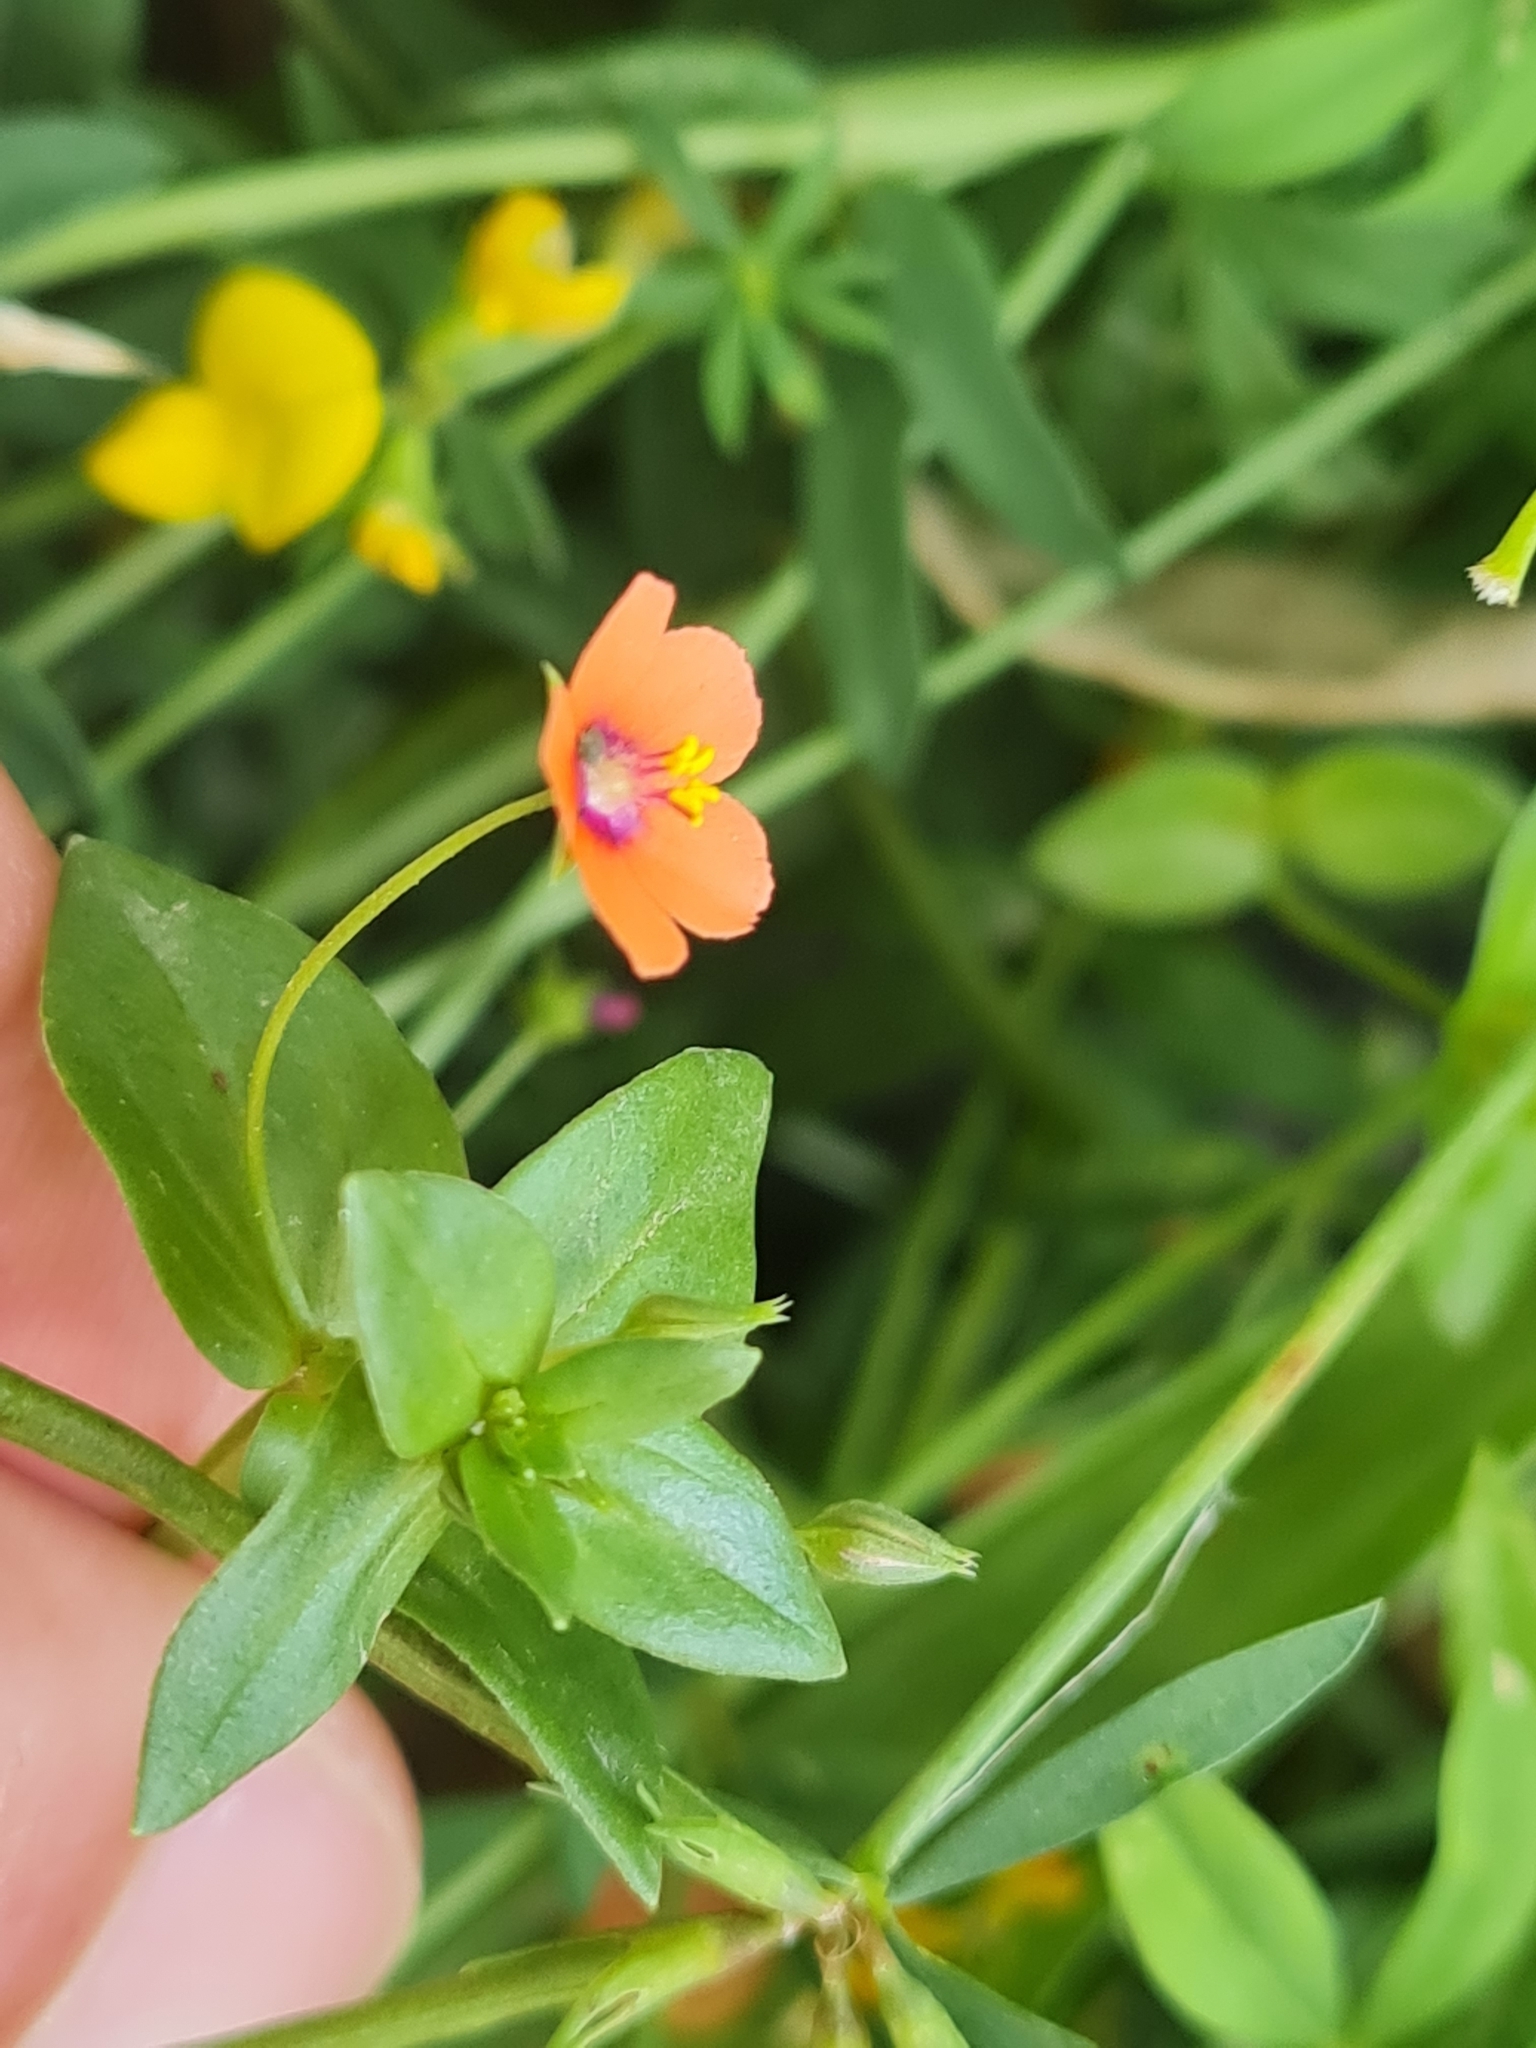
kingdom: Plantae
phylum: Tracheophyta
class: Magnoliopsida
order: Ericales
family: Primulaceae
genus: Lysimachia
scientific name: Lysimachia arvensis
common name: Scarlet pimpernel
